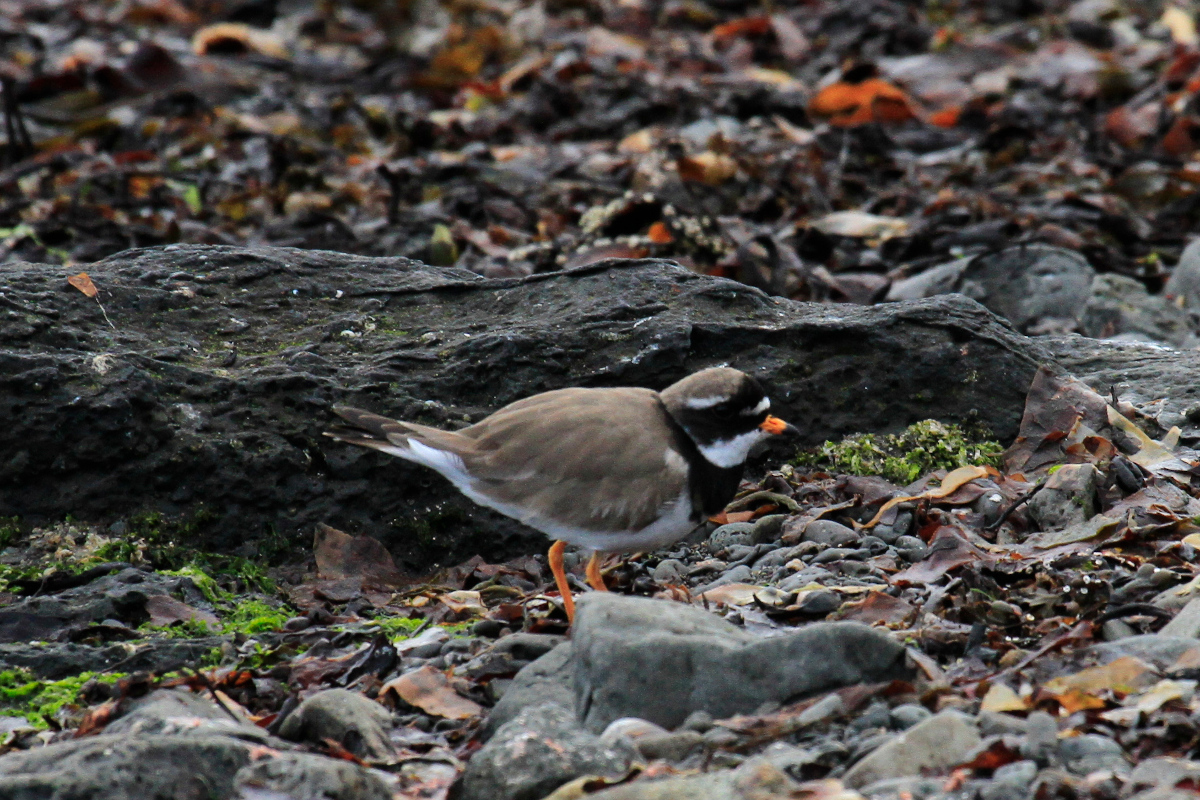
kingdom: Animalia
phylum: Chordata
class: Aves
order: Charadriiformes
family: Charadriidae
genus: Charadrius
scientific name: Charadrius hiaticula
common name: Common ringed plover
